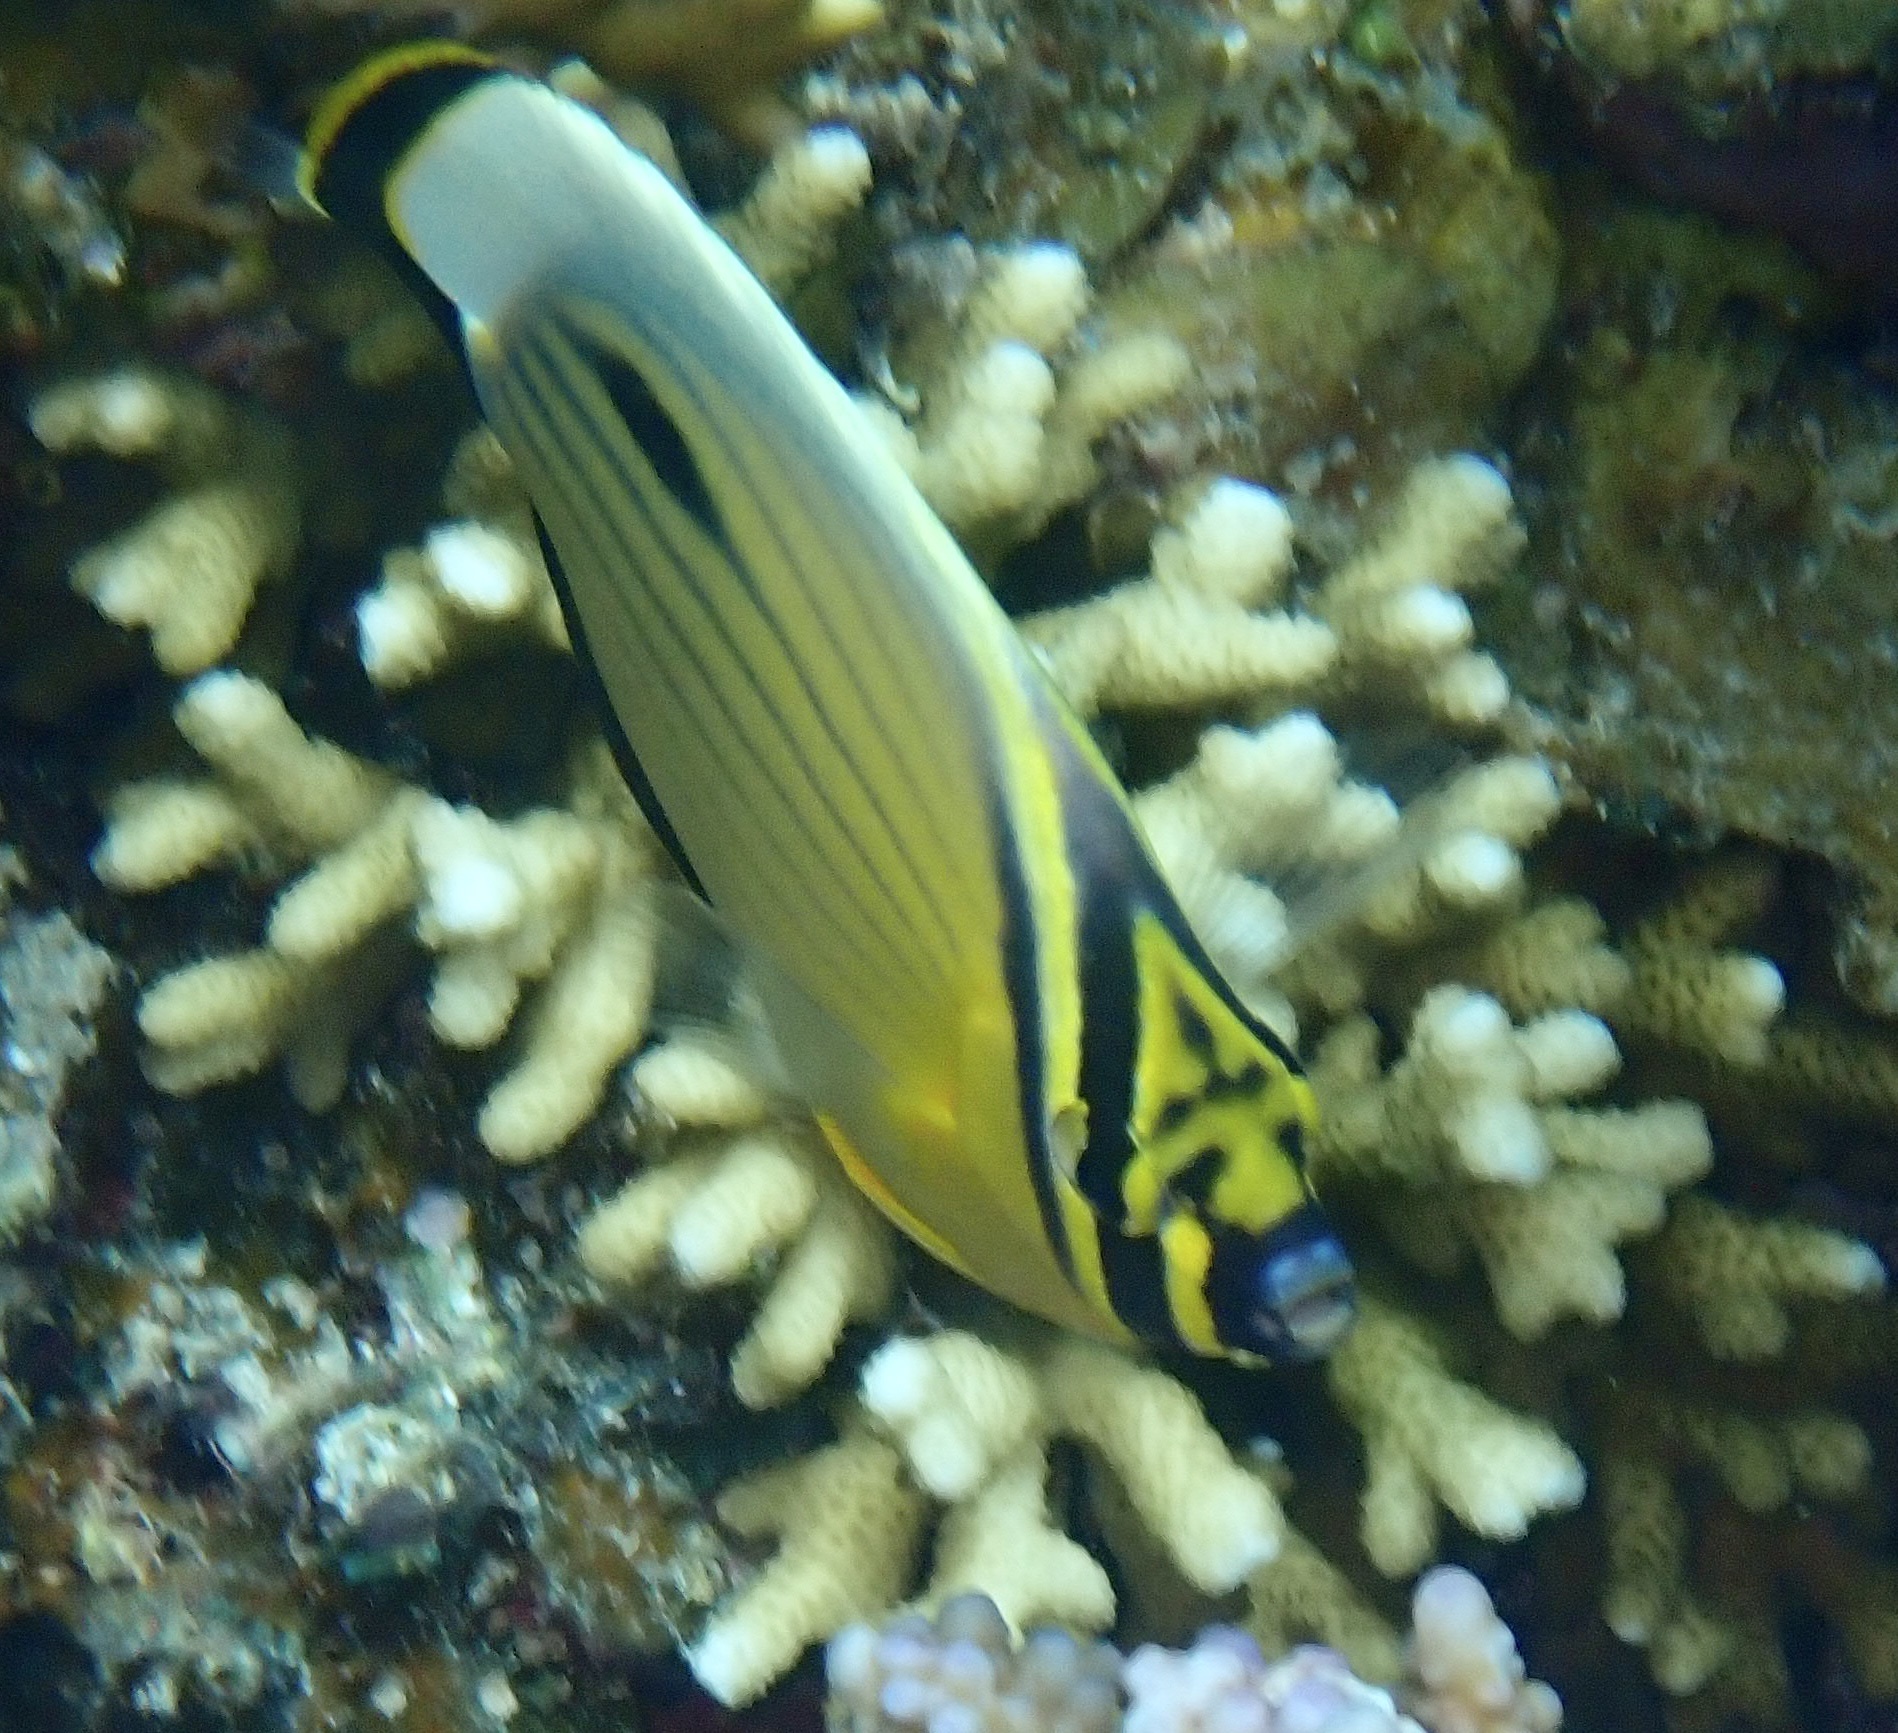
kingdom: Animalia
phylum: Chordata
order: Perciformes
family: Chaetodontidae
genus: Chaetodon
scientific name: Chaetodon austriacus
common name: Exquisite butterflyfish
